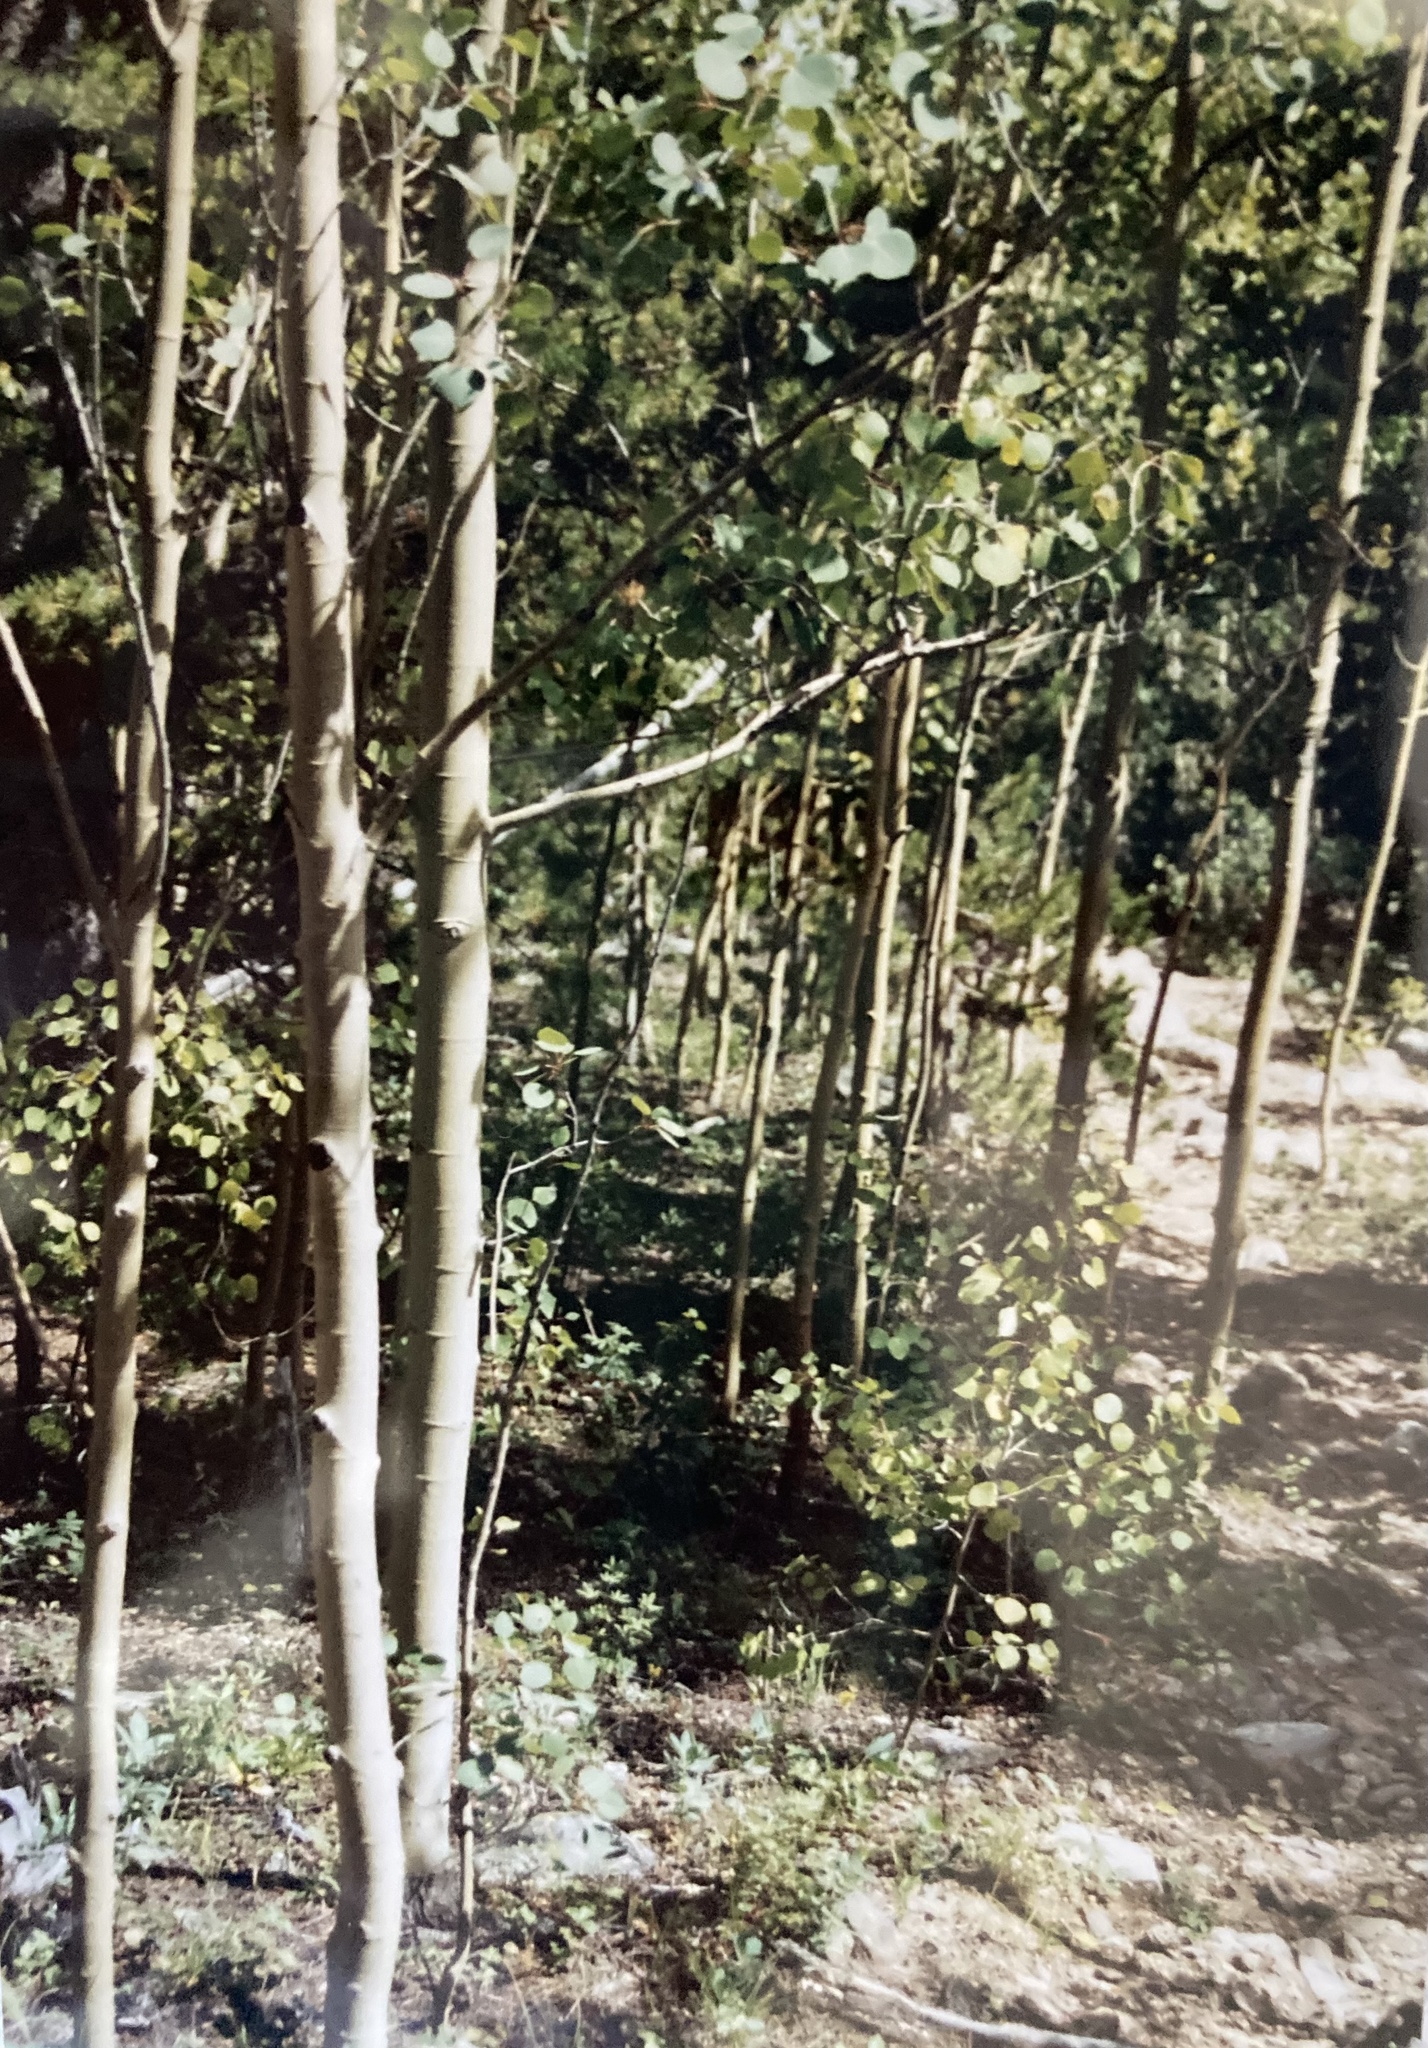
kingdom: Plantae
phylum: Tracheophyta
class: Magnoliopsida
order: Malpighiales
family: Salicaceae
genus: Populus
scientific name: Populus tremuloides
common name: Quaking aspen
